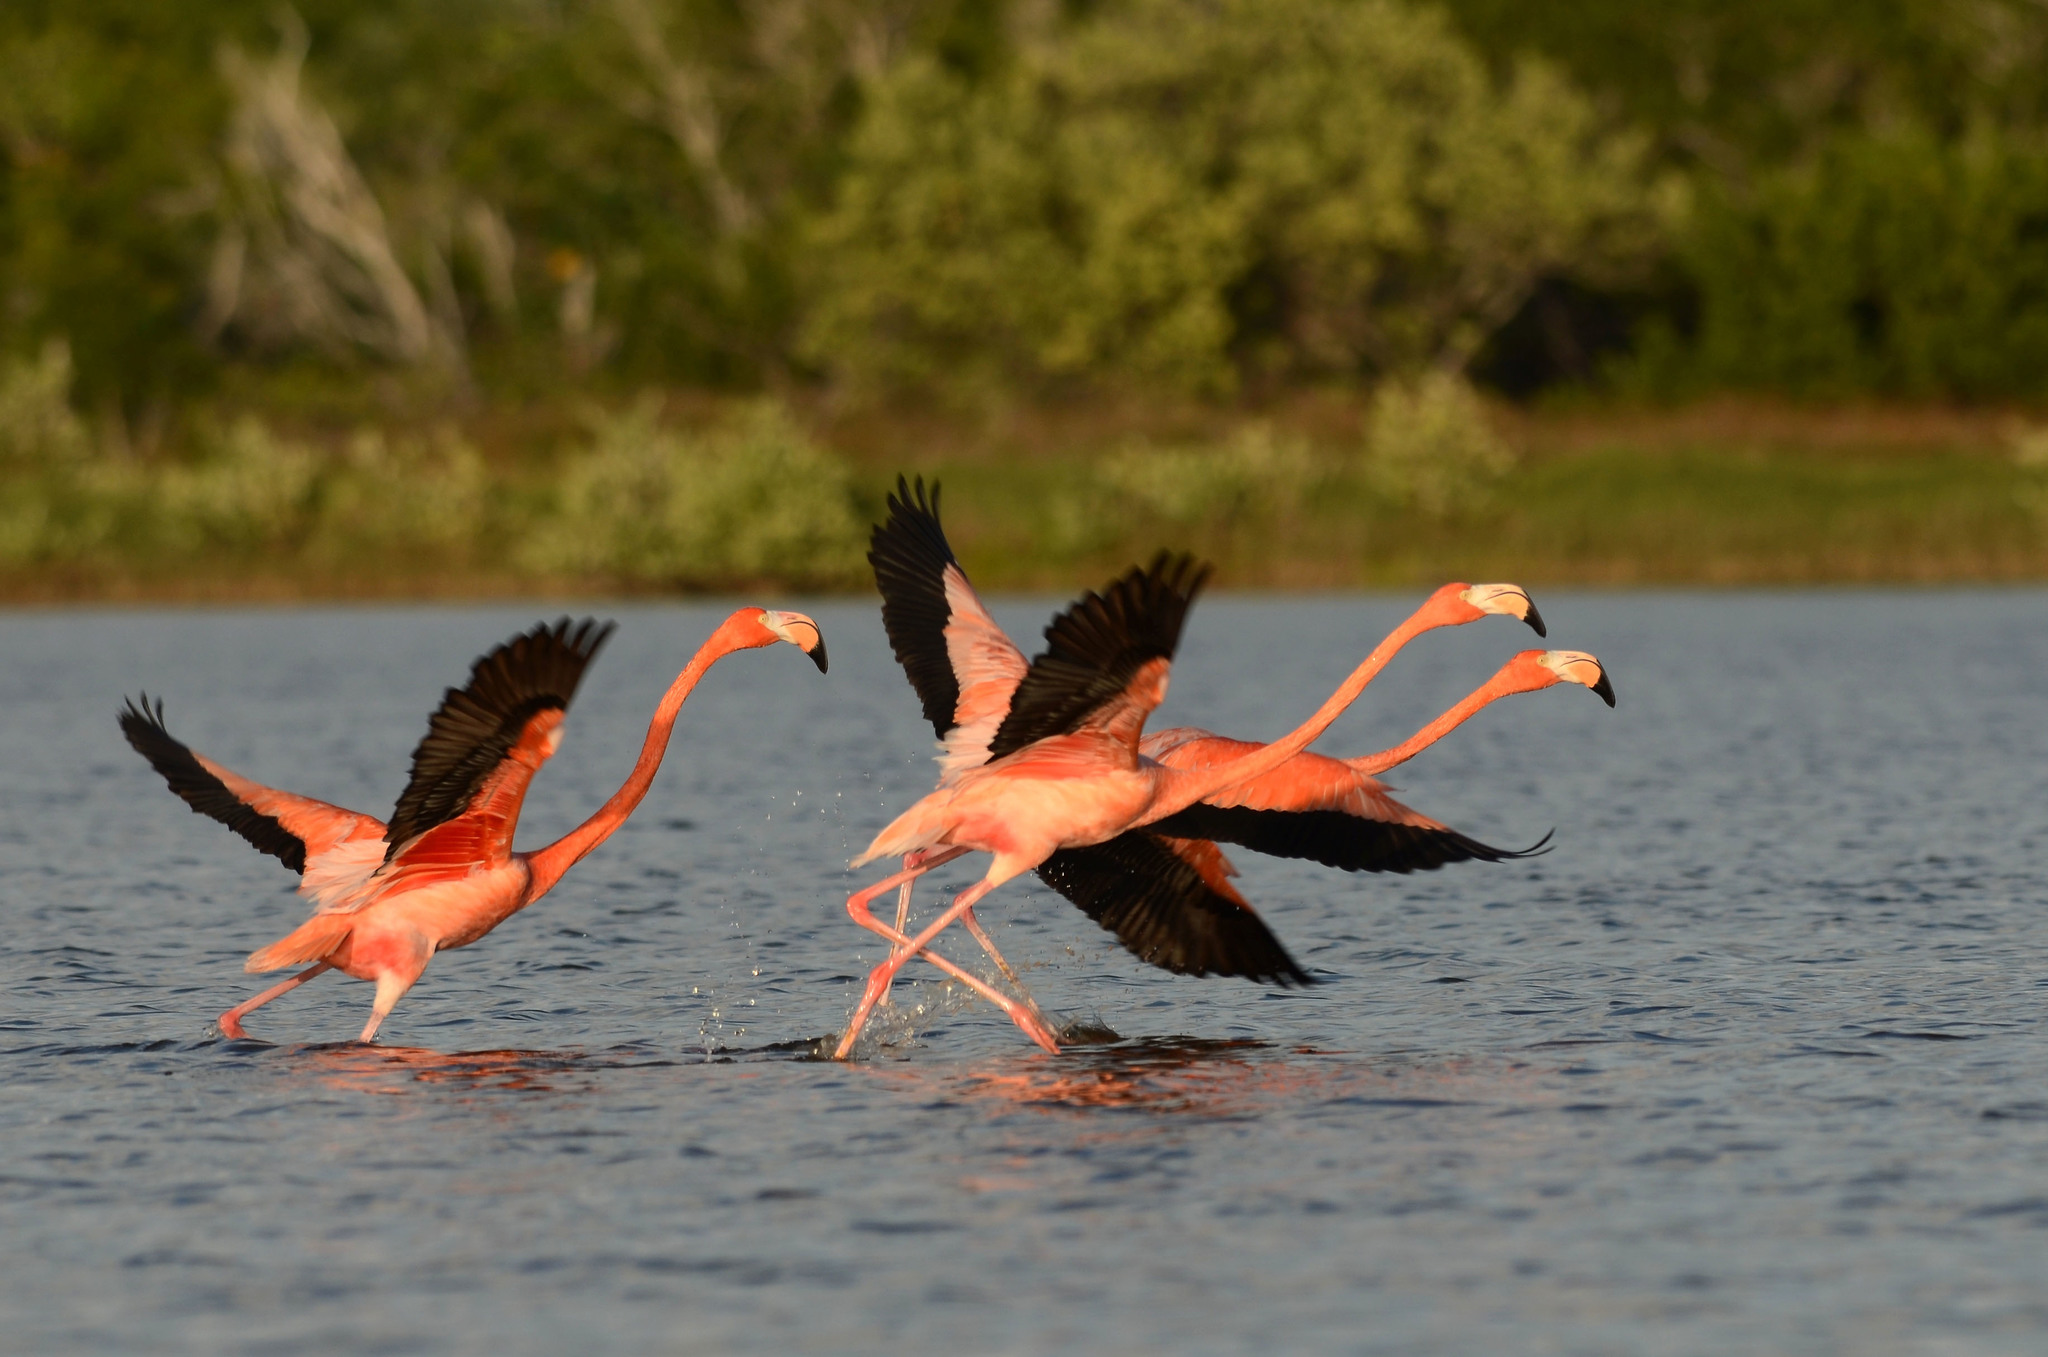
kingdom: Animalia
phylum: Chordata
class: Aves
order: Phoenicopteriformes
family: Phoenicopteridae
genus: Phoenicopterus
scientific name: Phoenicopterus ruber
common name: American flamingo
